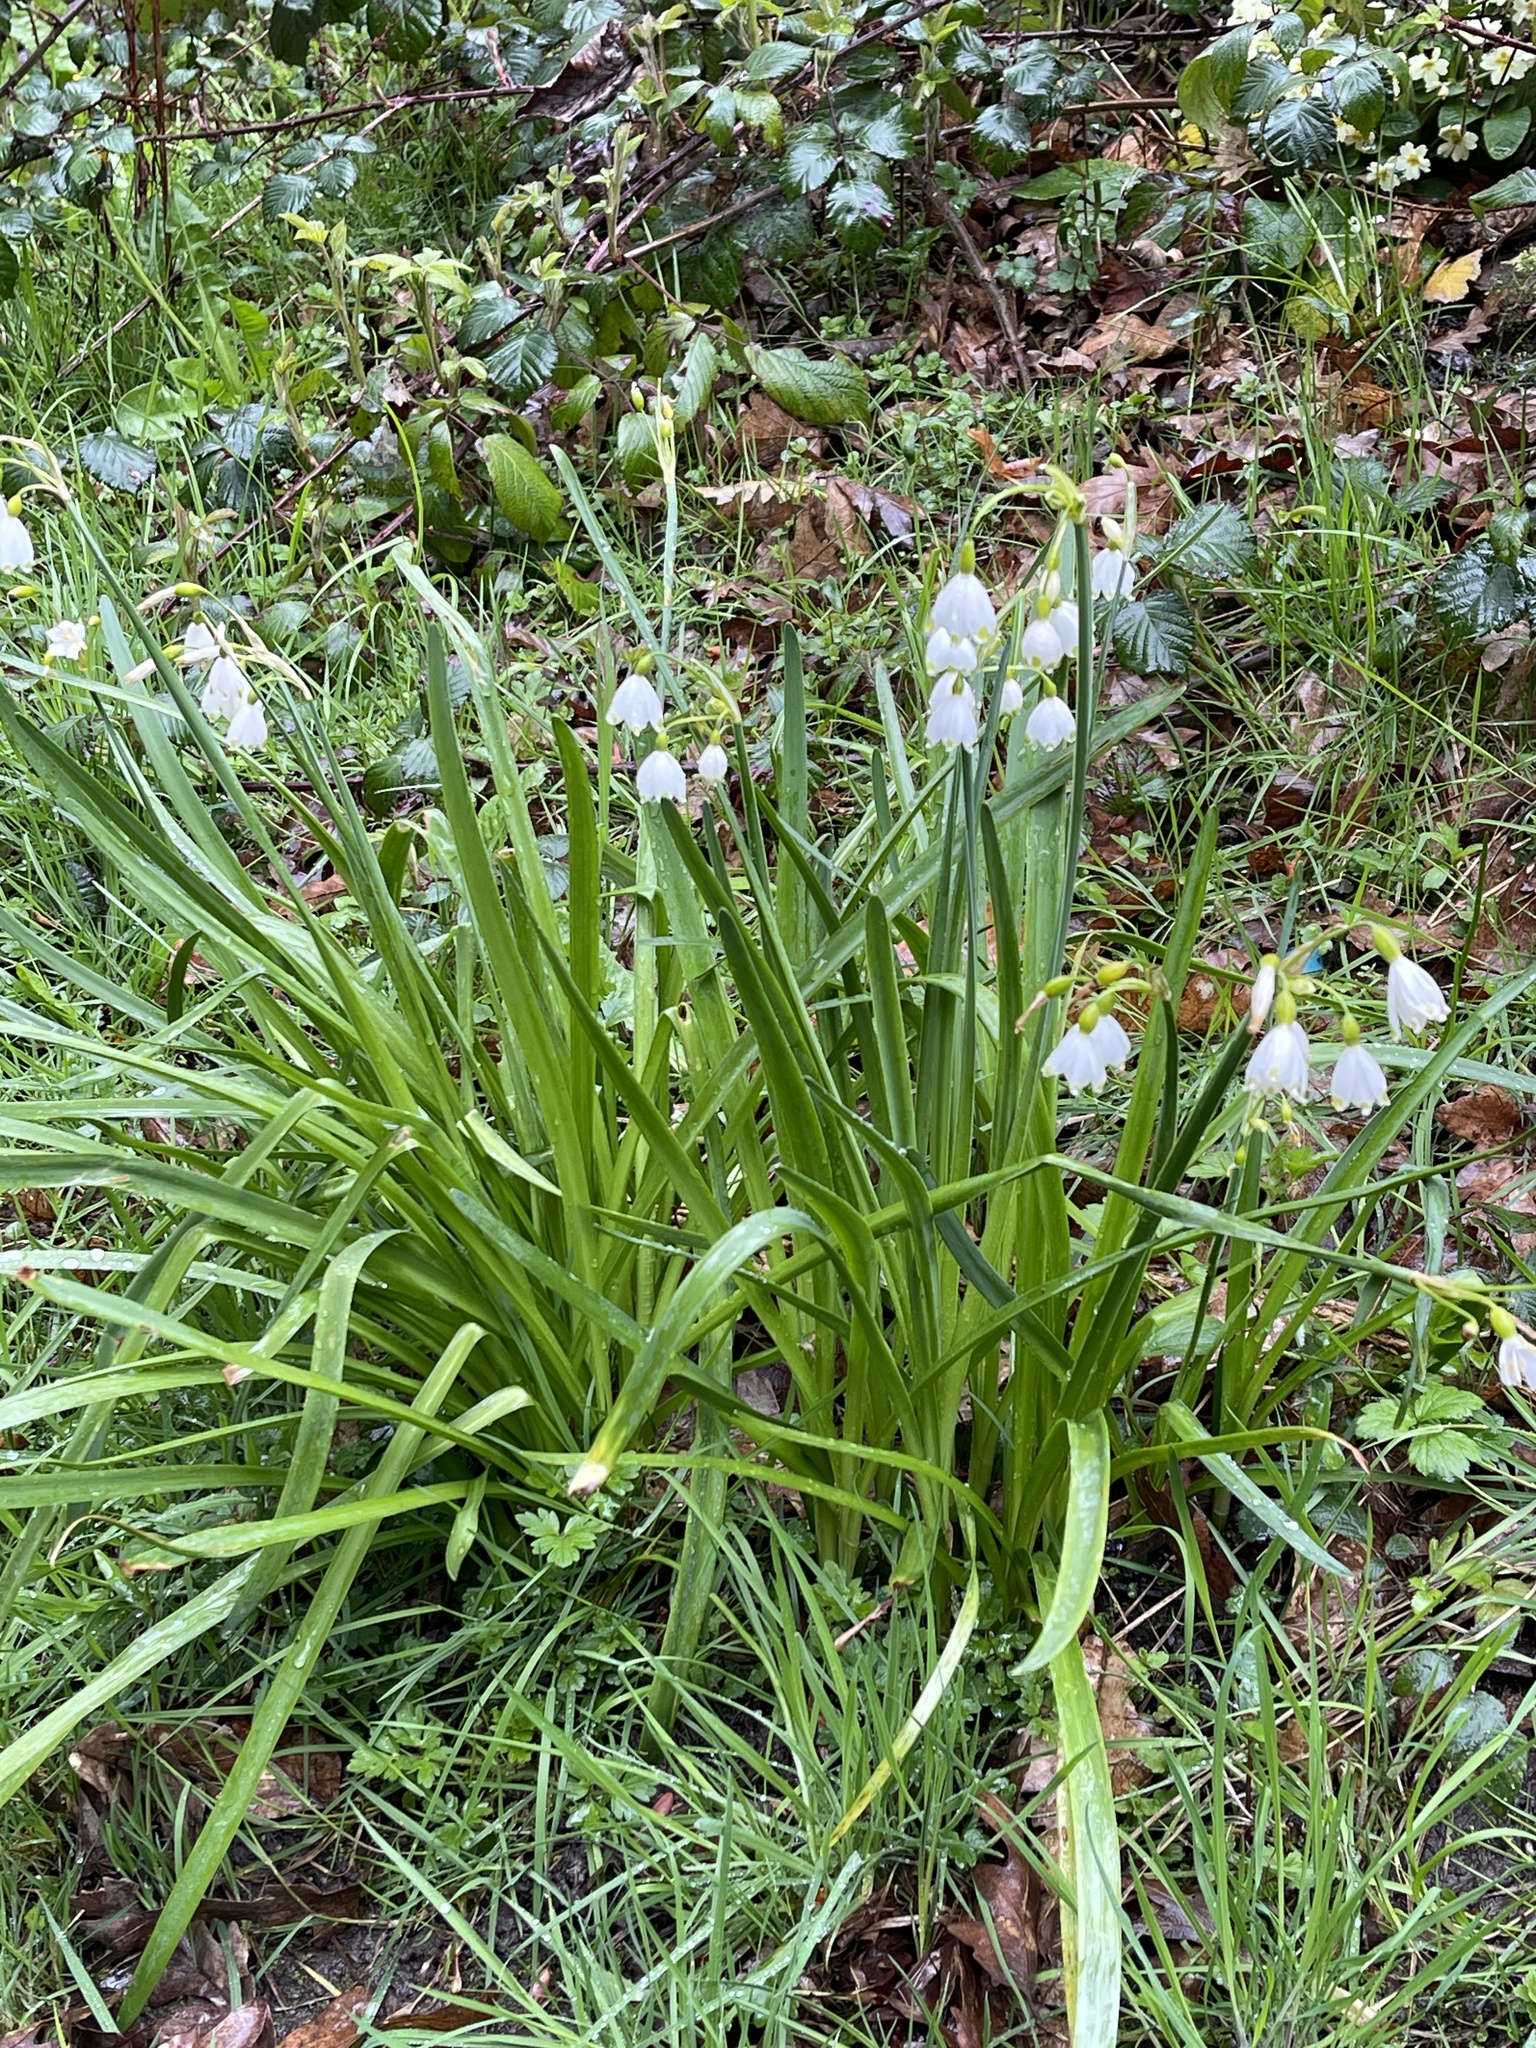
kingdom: Plantae
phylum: Tracheophyta
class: Liliopsida
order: Asparagales
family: Amaryllidaceae
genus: Leucojum
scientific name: Leucojum aestivum
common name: Summer snowflake
